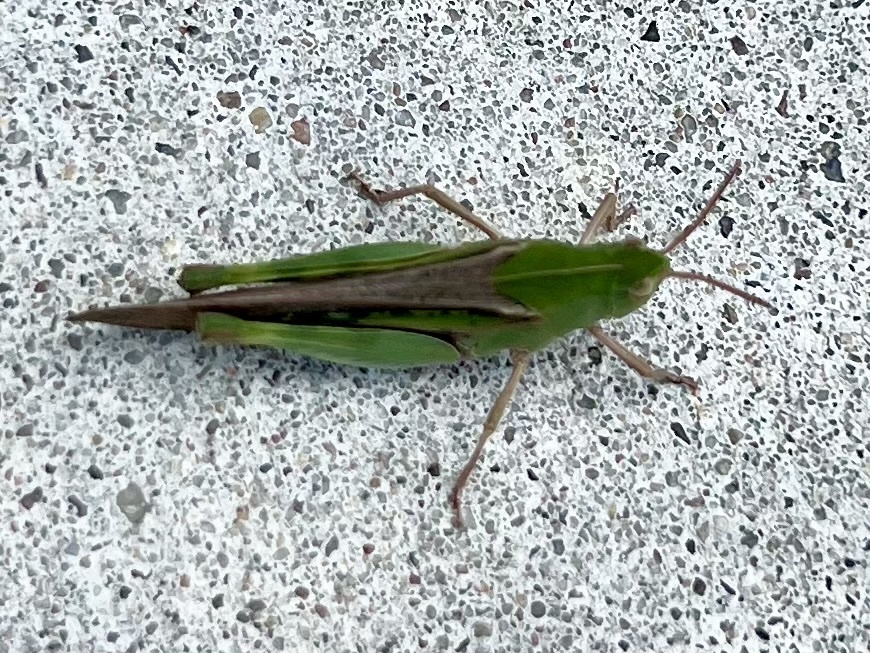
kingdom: Animalia
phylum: Arthropoda
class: Insecta
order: Orthoptera
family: Acrididae
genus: Chortophaga
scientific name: Chortophaga viridifasciata
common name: Green-striped grasshopper
